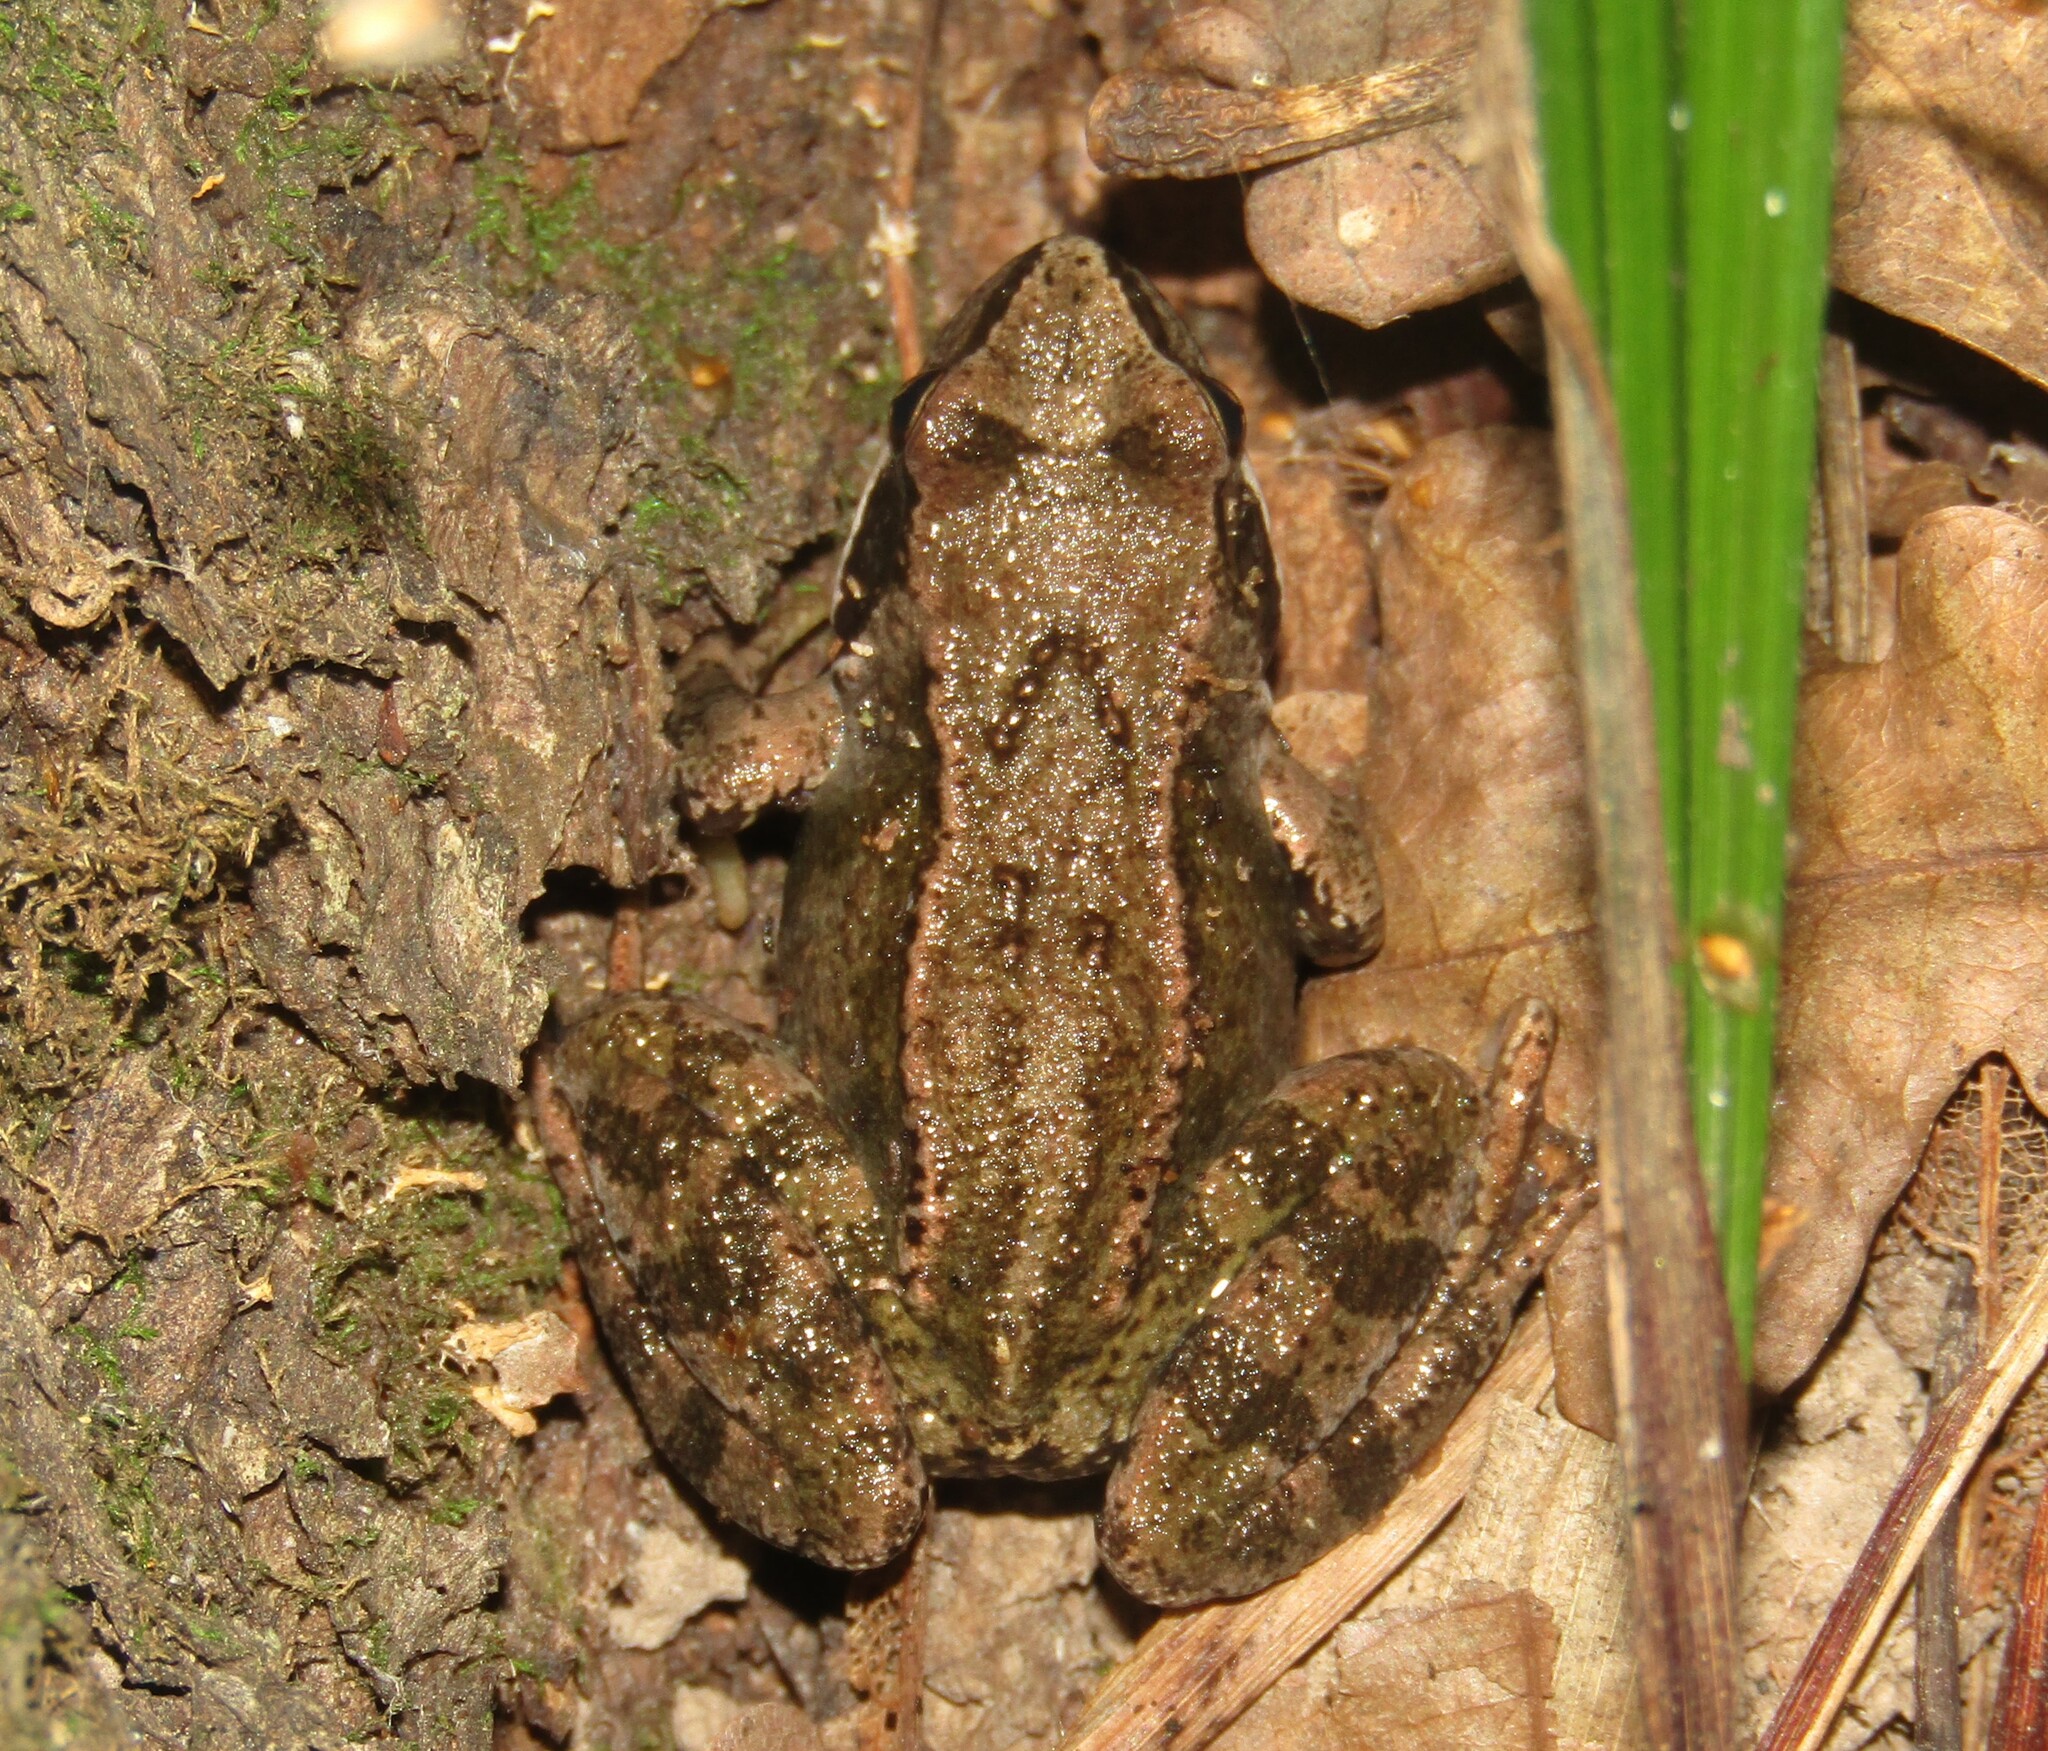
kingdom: Animalia
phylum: Chordata
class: Amphibia
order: Anura
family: Ranidae
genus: Rana
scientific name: Rana temporaria
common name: Common frog
